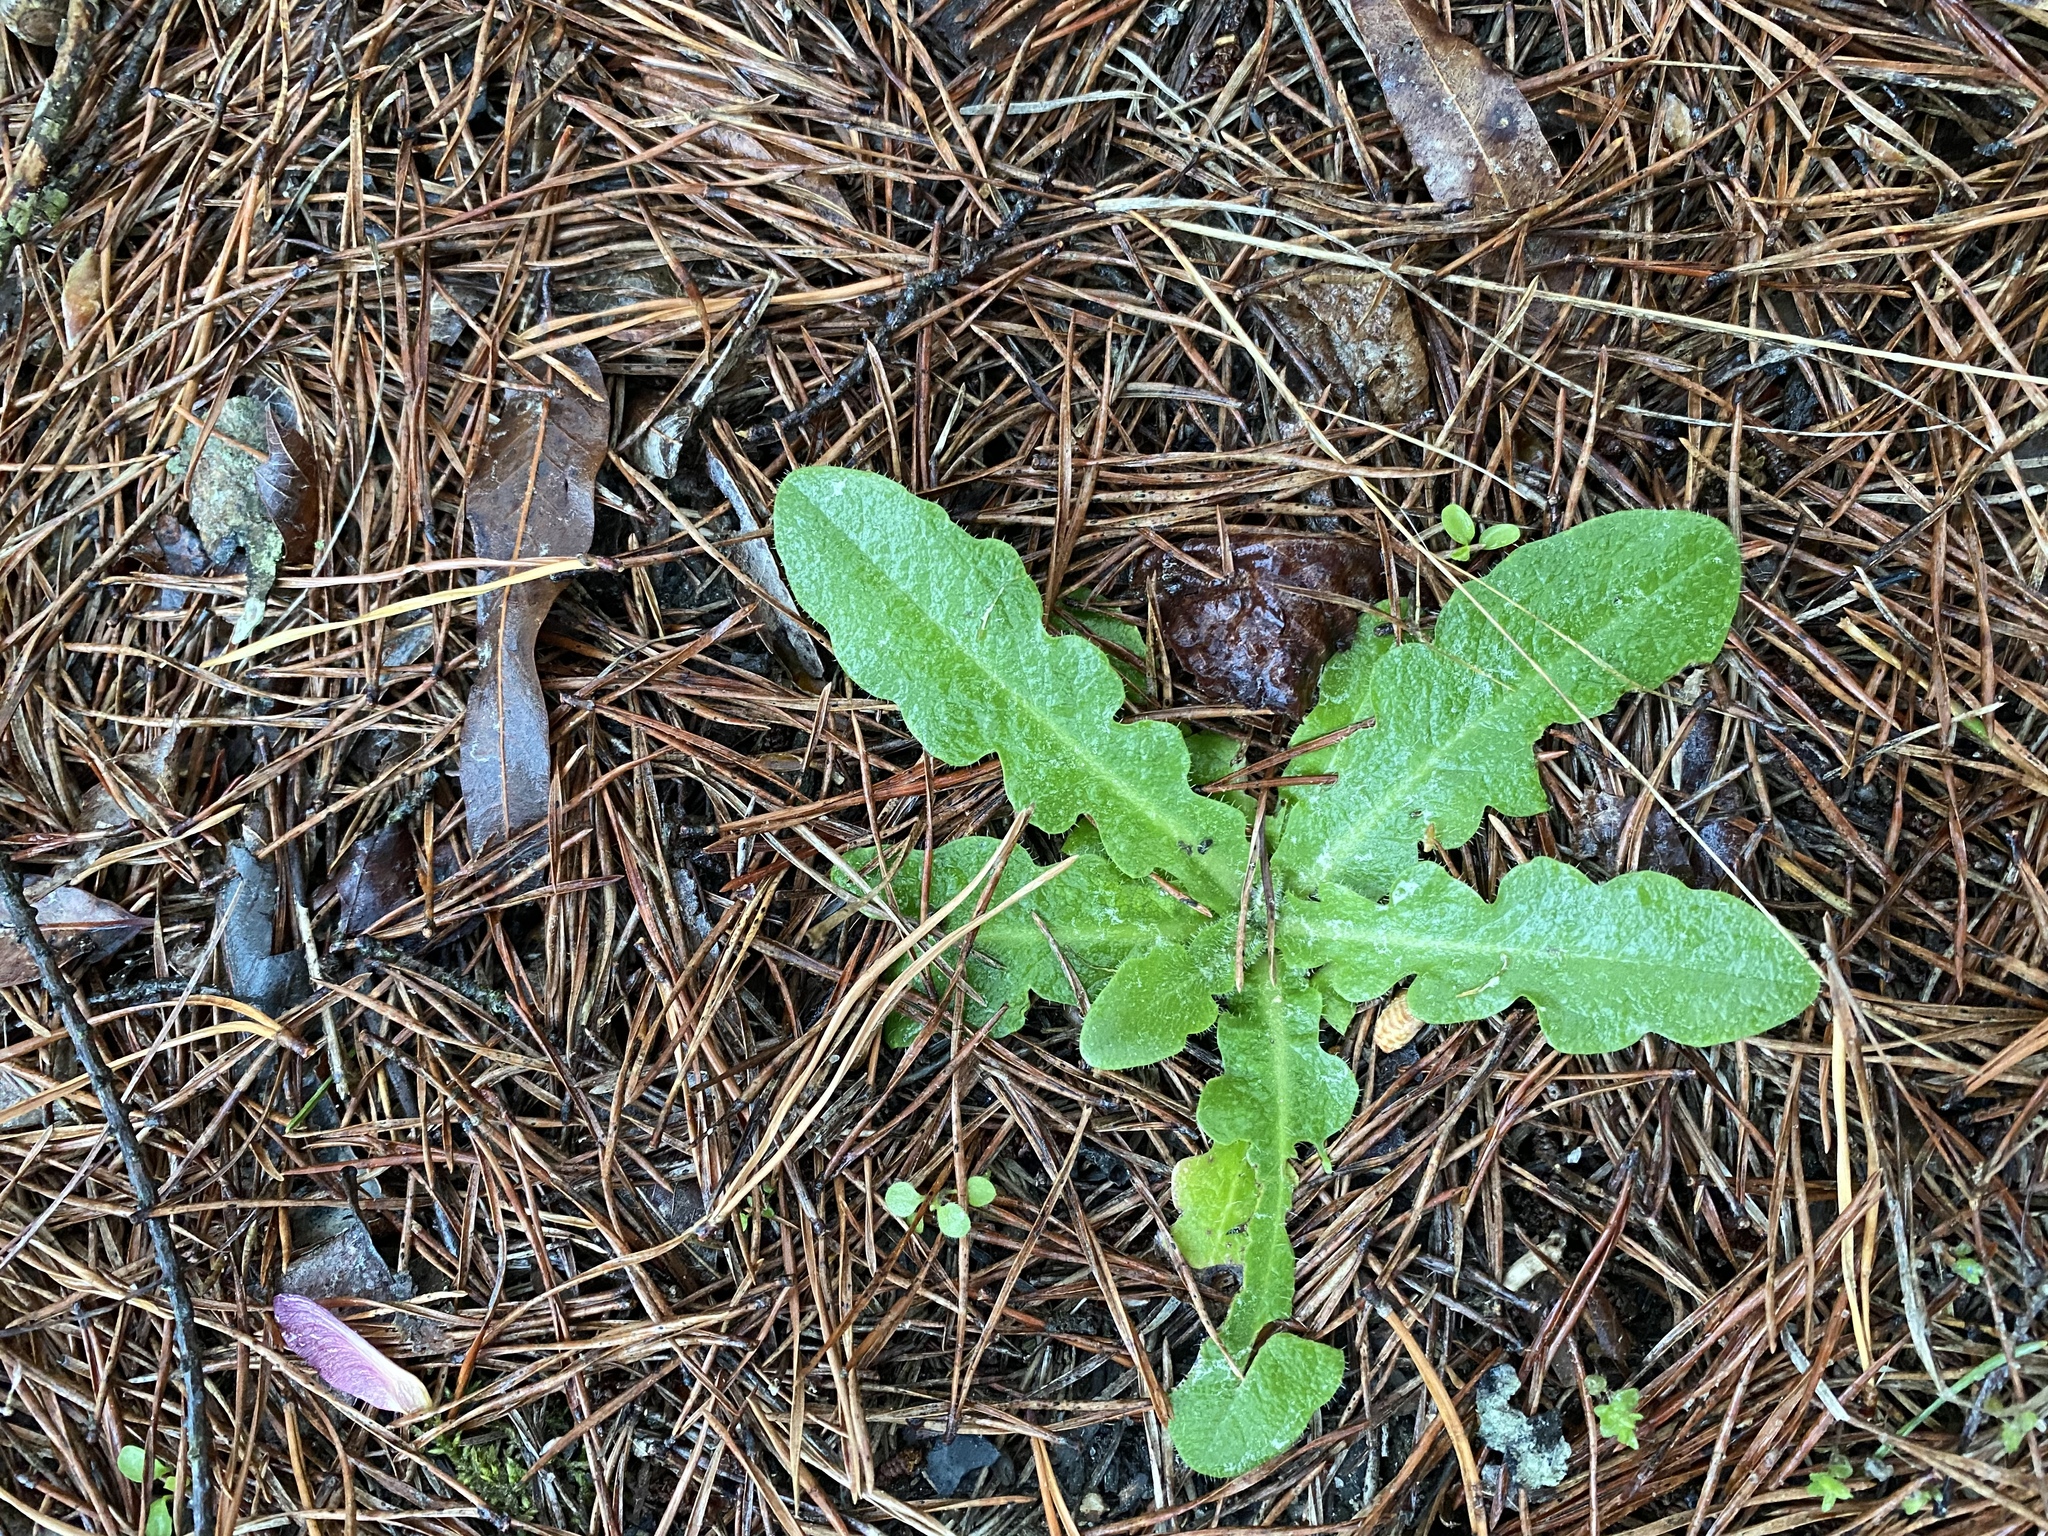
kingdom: Plantae
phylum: Tracheophyta
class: Magnoliopsida
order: Asterales
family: Asteraceae
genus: Hypochaeris
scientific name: Hypochaeris radicata
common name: Flatweed
